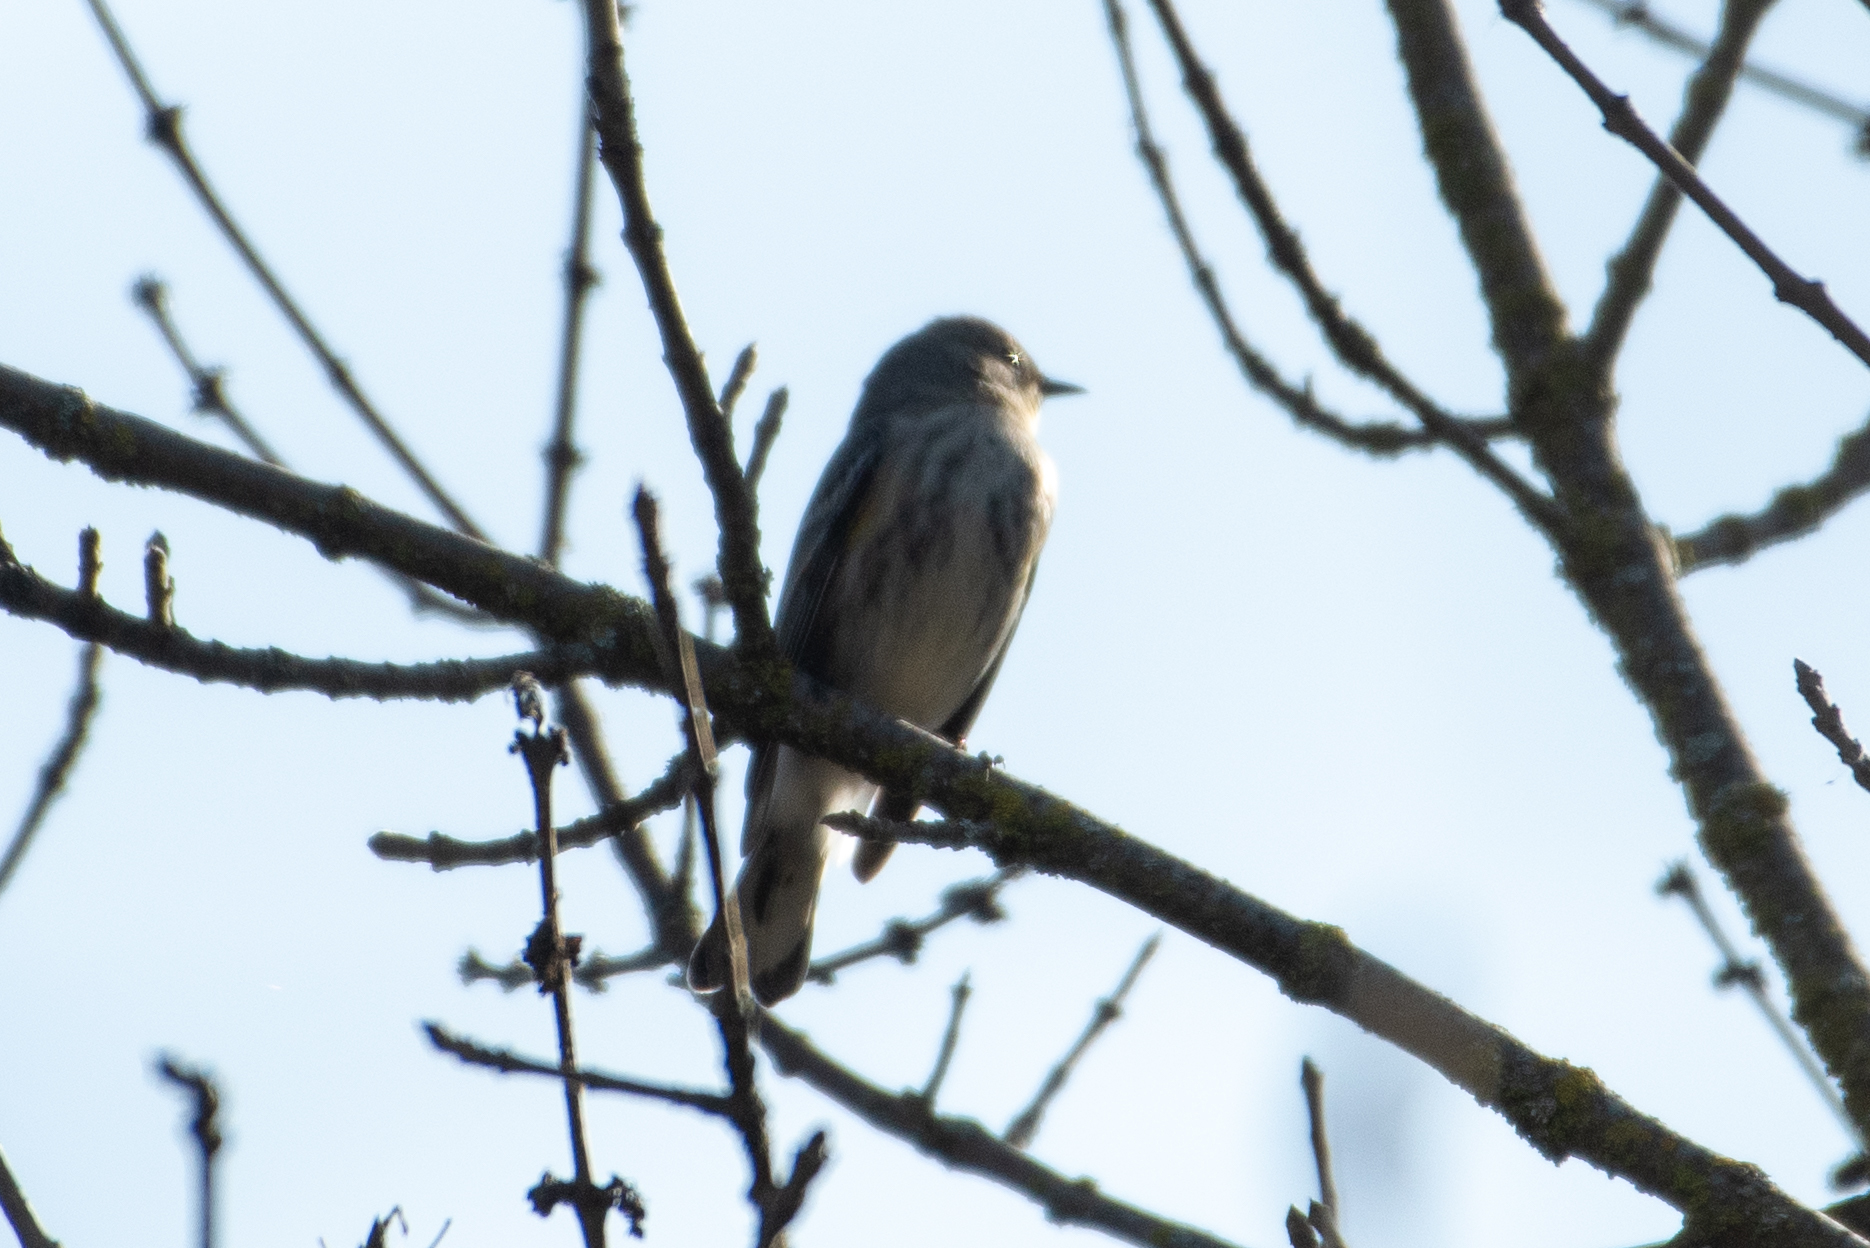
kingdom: Animalia
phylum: Chordata
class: Aves
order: Passeriformes
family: Parulidae
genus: Setophaga
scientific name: Setophaga coronata
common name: Myrtle warbler
